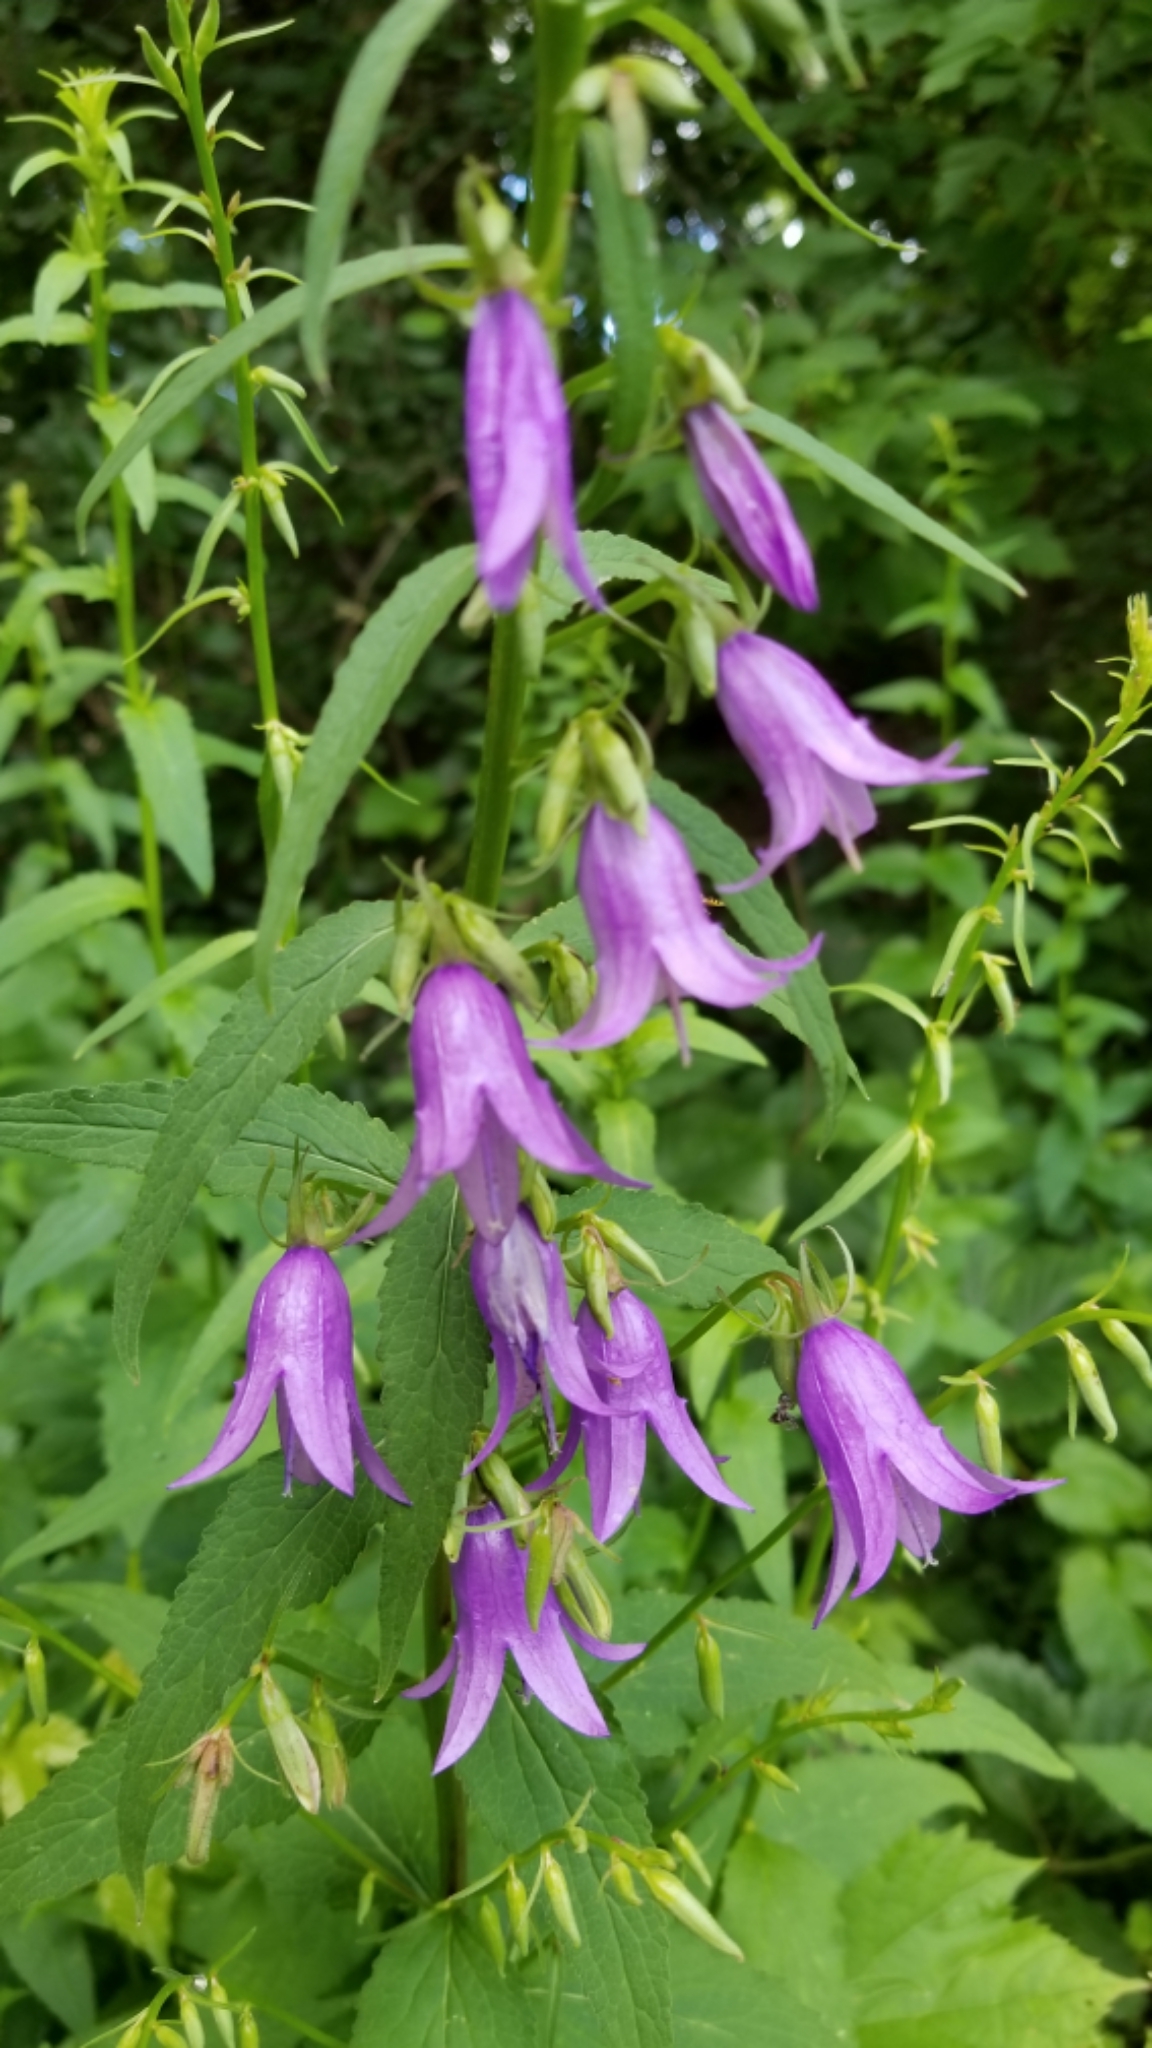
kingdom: Plantae
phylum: Tracheophyta
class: Magnoliopsida
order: Asterales
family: Campanulaceae
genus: Campanula
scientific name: Campanula rapunculoides
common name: Creeping bellflower
